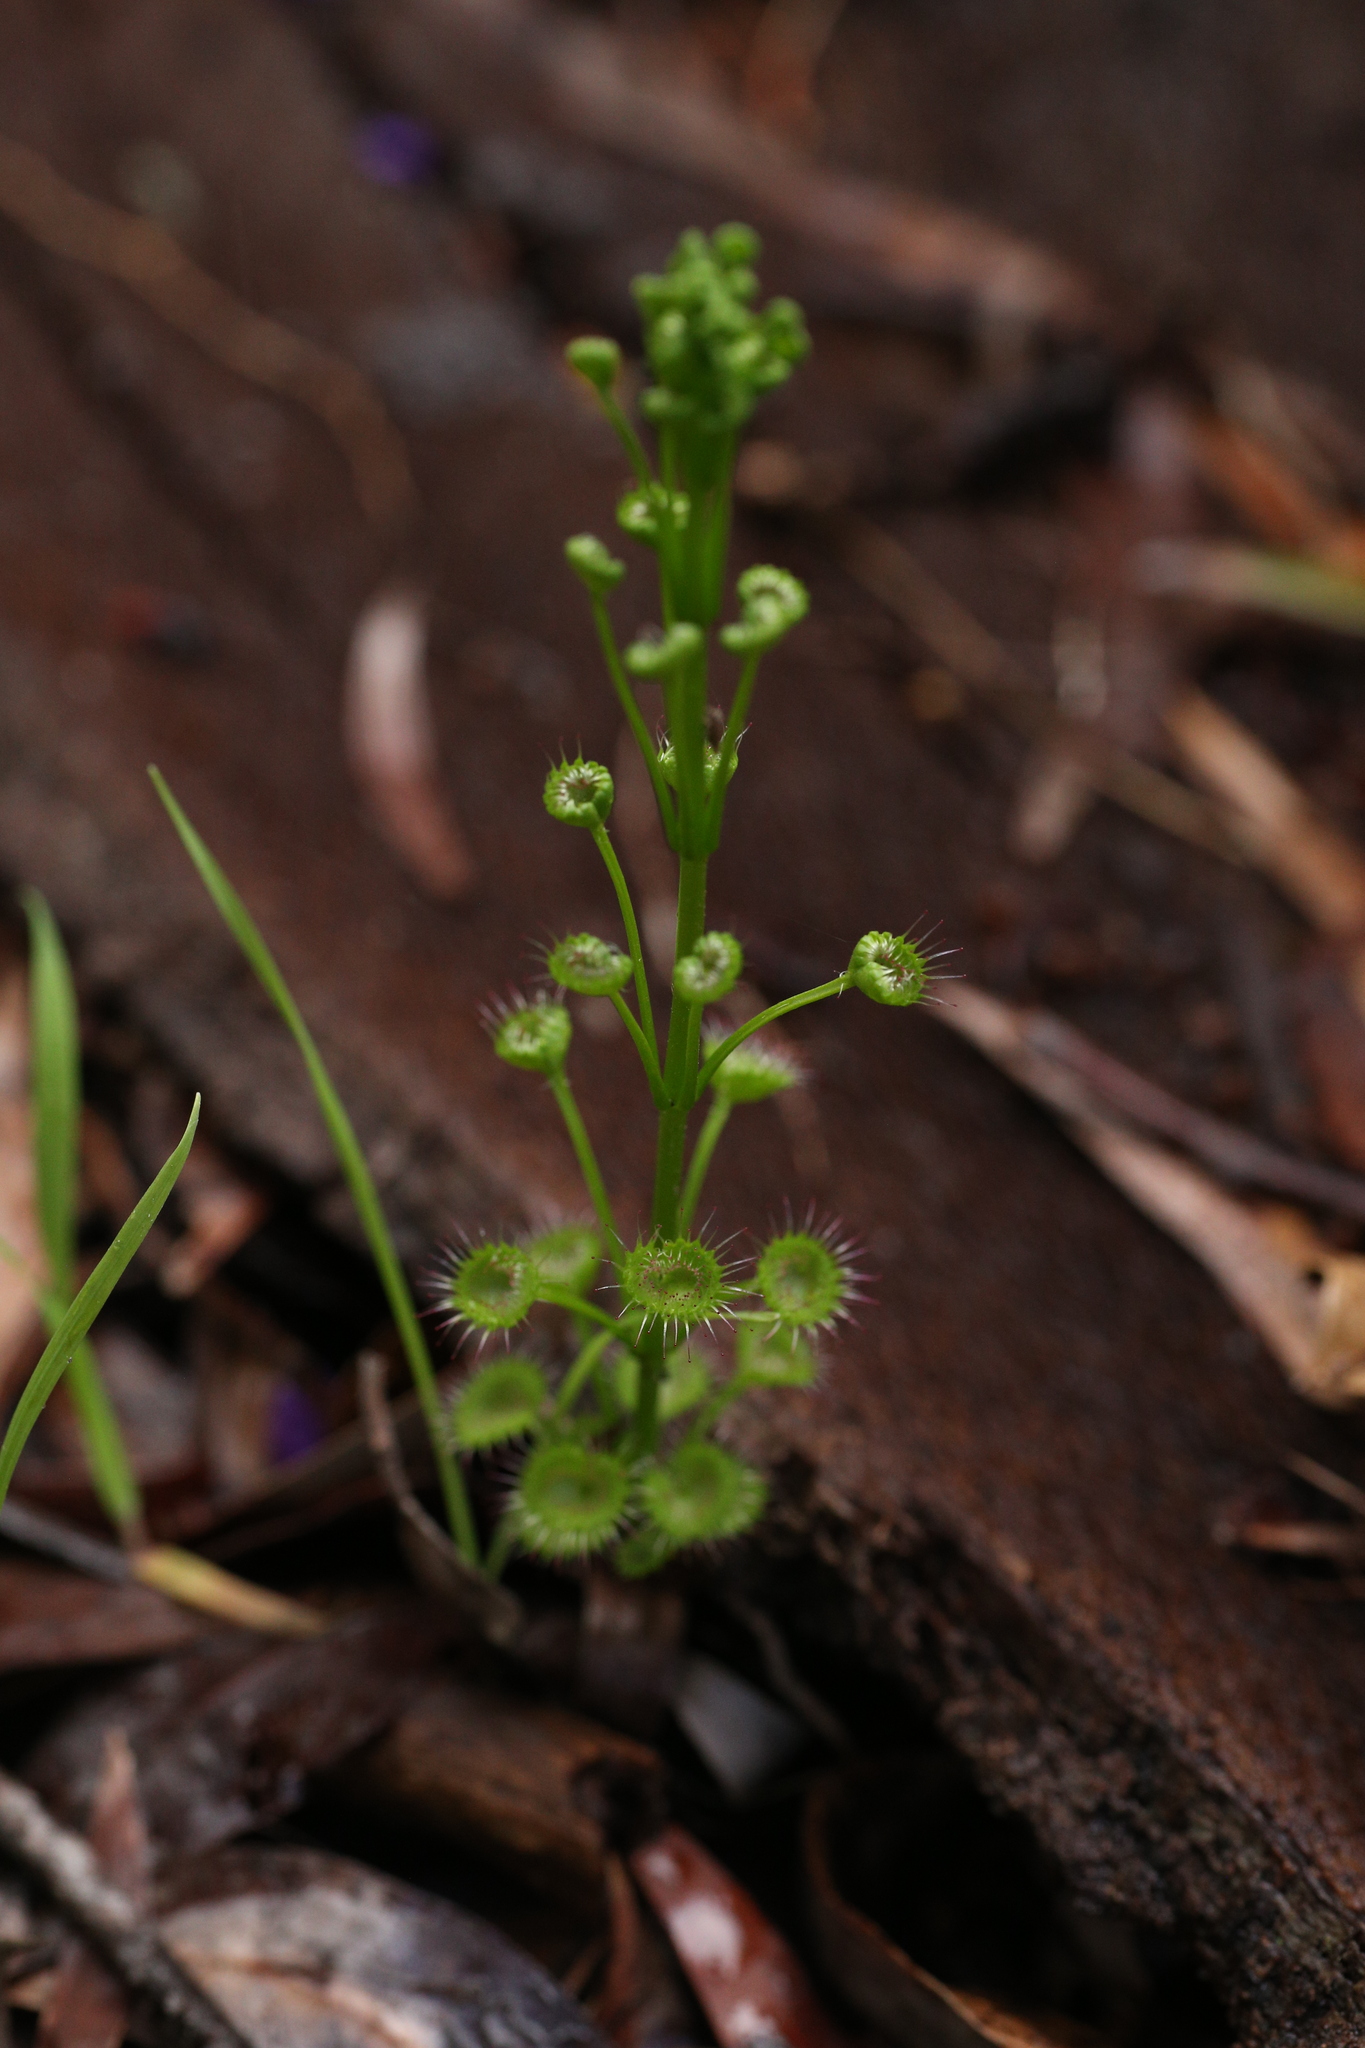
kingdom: Plantae
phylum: Tracheophyta
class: Magnoliopsida
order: Caryophyllales
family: Droseraceae
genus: Drosera
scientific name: Drosera stolonifera
